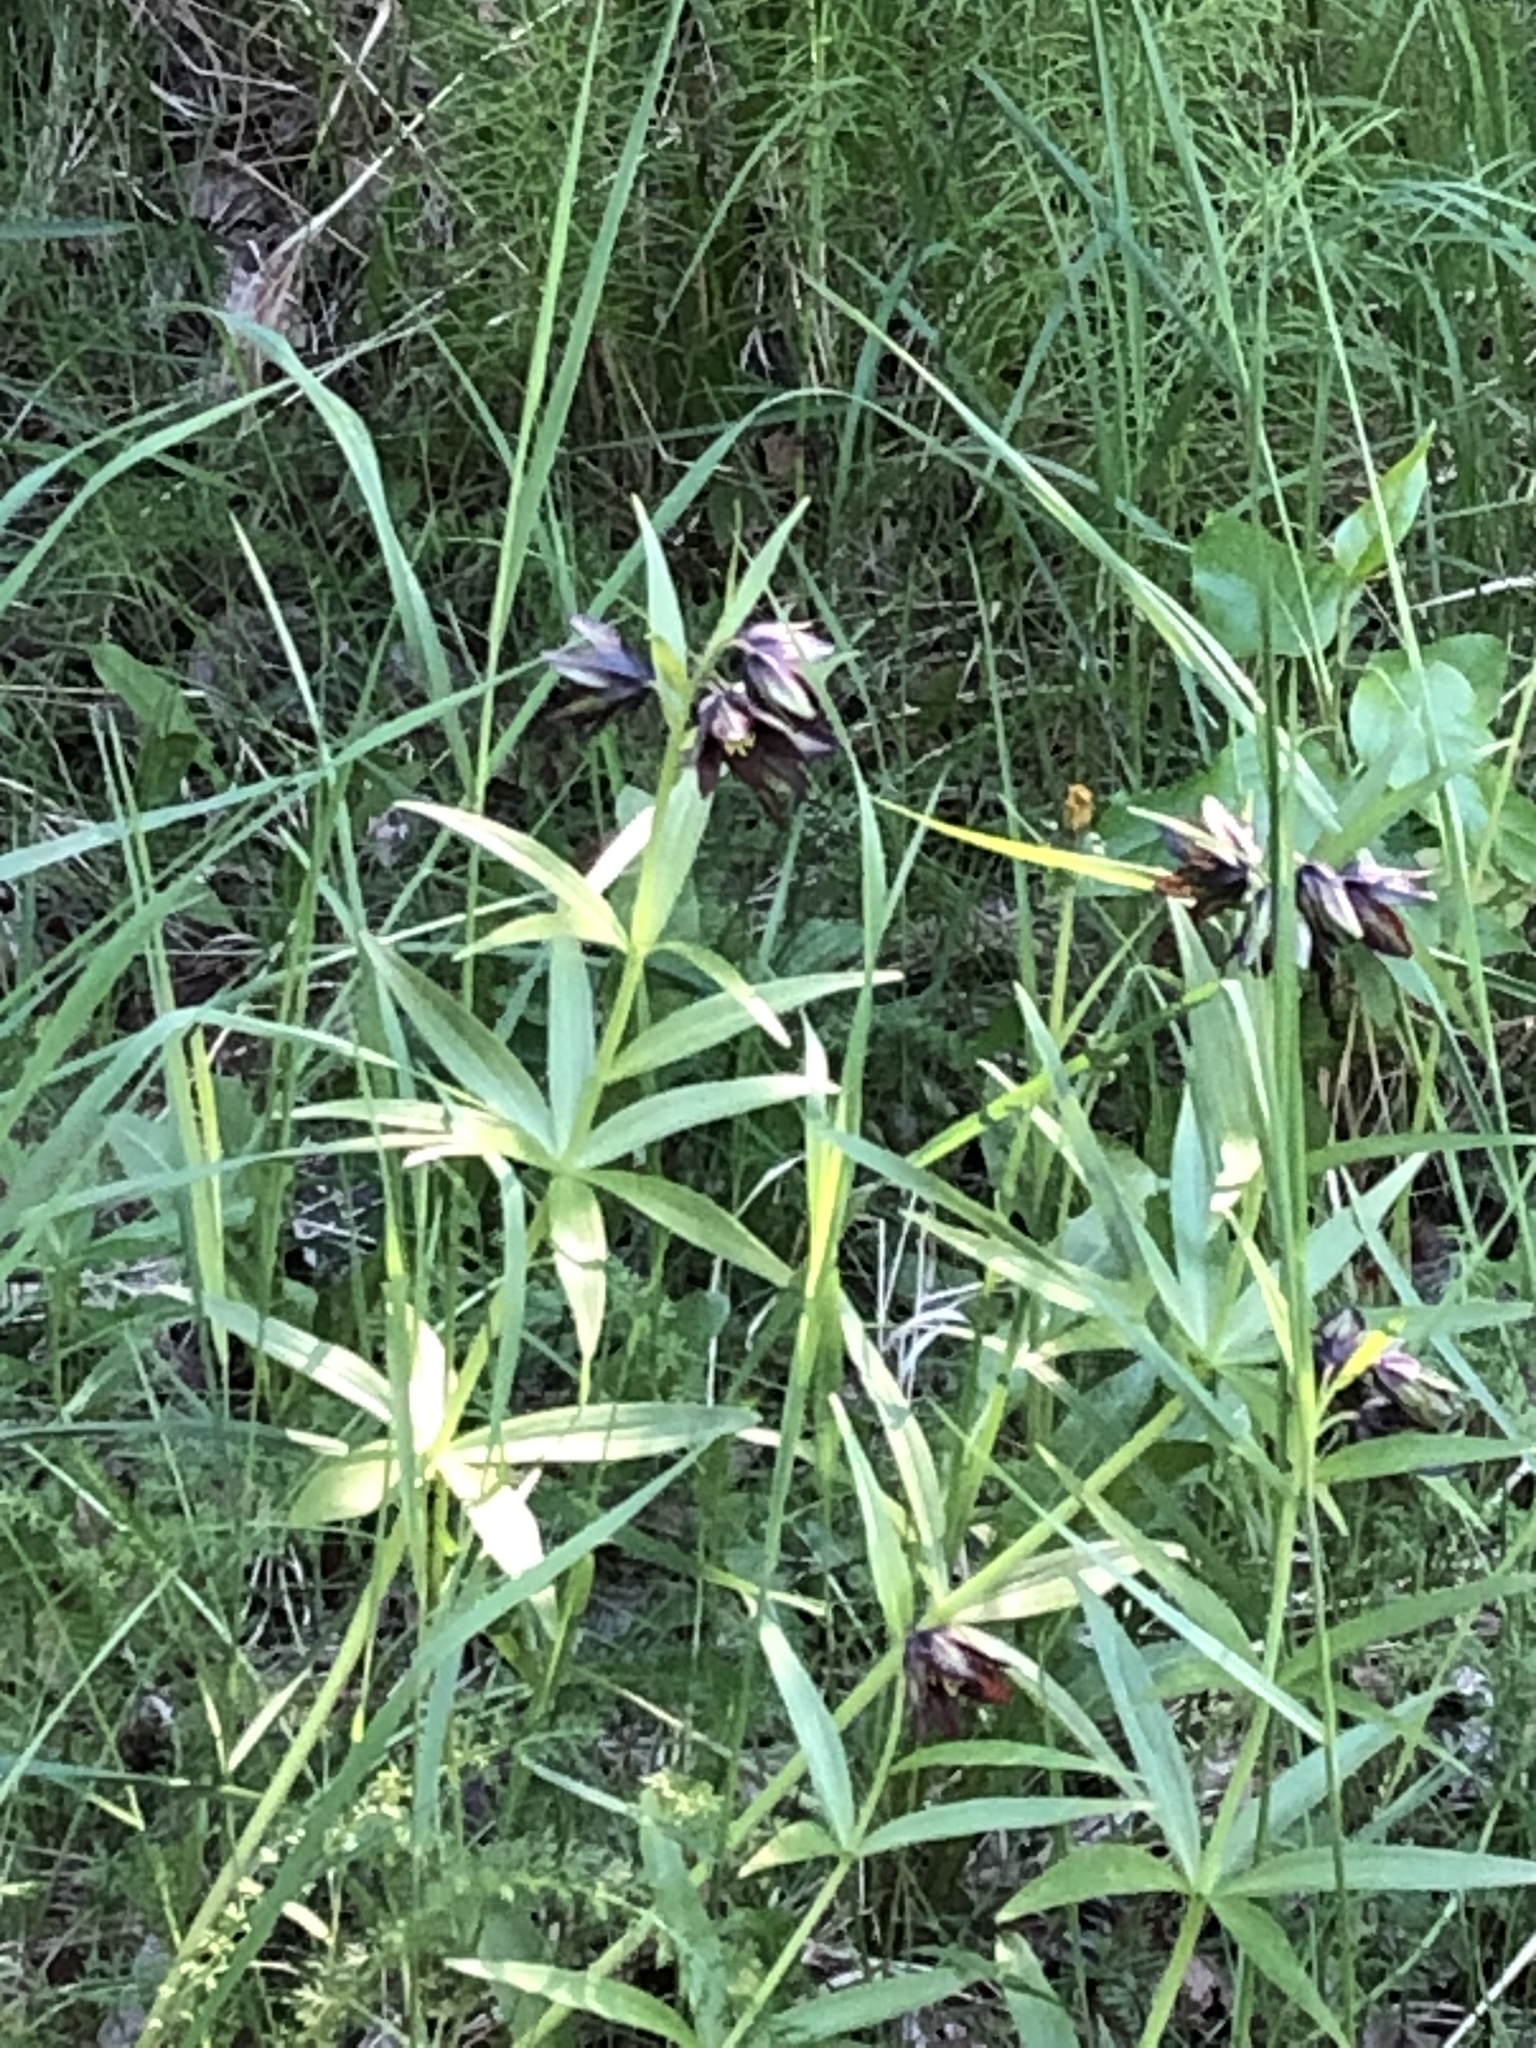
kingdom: Plantae
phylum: Tracheophyta
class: Liliopsida
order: Liliales
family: Liliaceae
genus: Fritillaria
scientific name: Fritillaria camschatcensis
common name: Kamchatka fritillary
